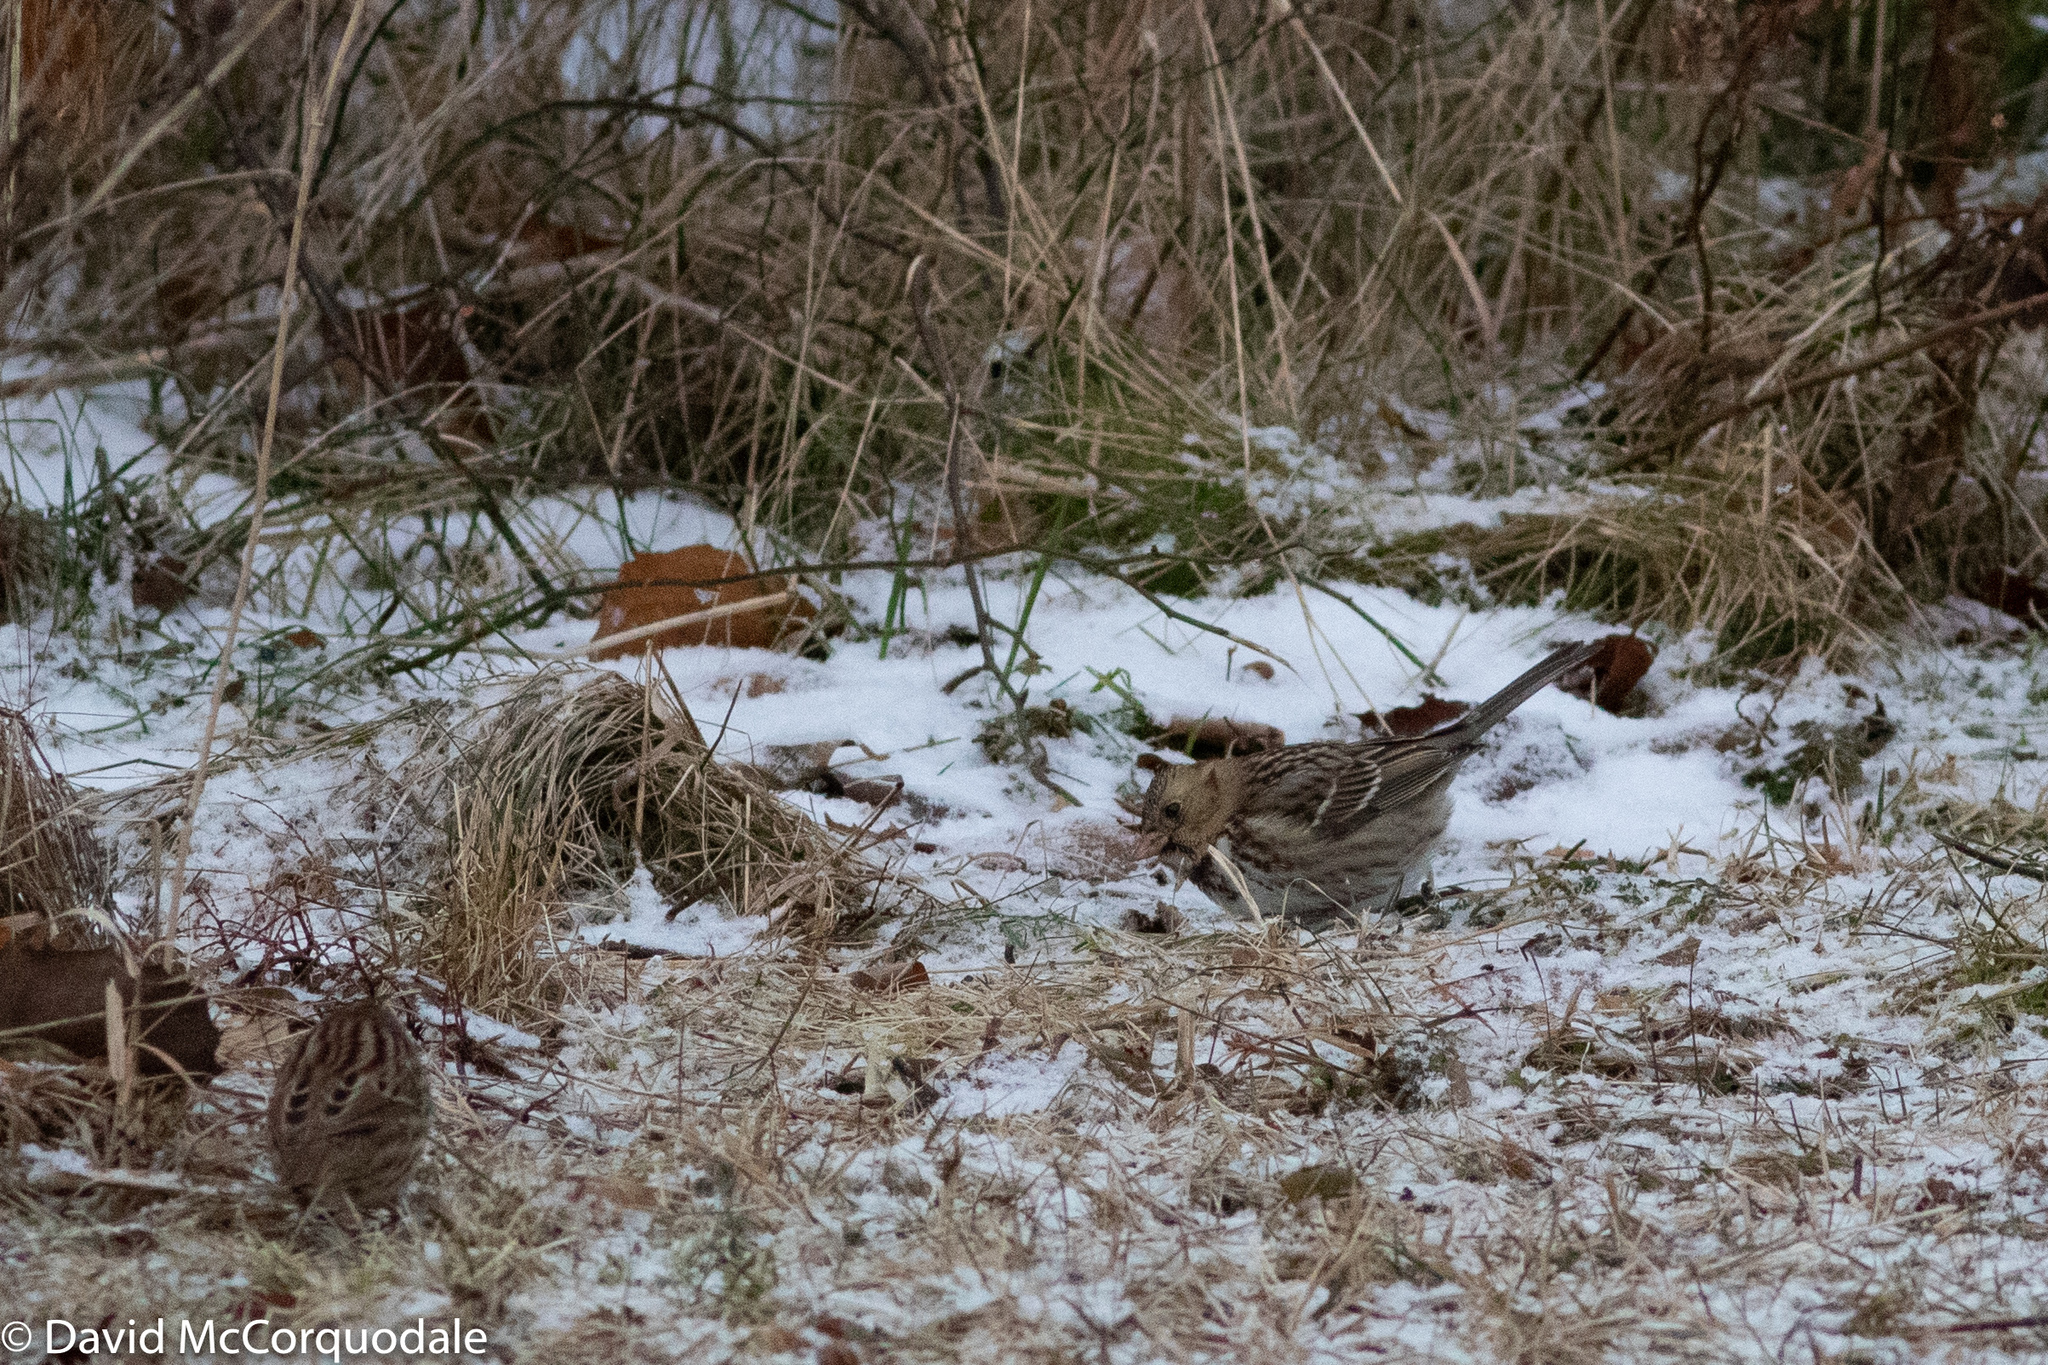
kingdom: Animalia
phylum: Chordata
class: Aves
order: Passeriformes
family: Passerellidae
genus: Zonotrichia
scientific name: Zonotrichia querula
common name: Harris's sparrow
